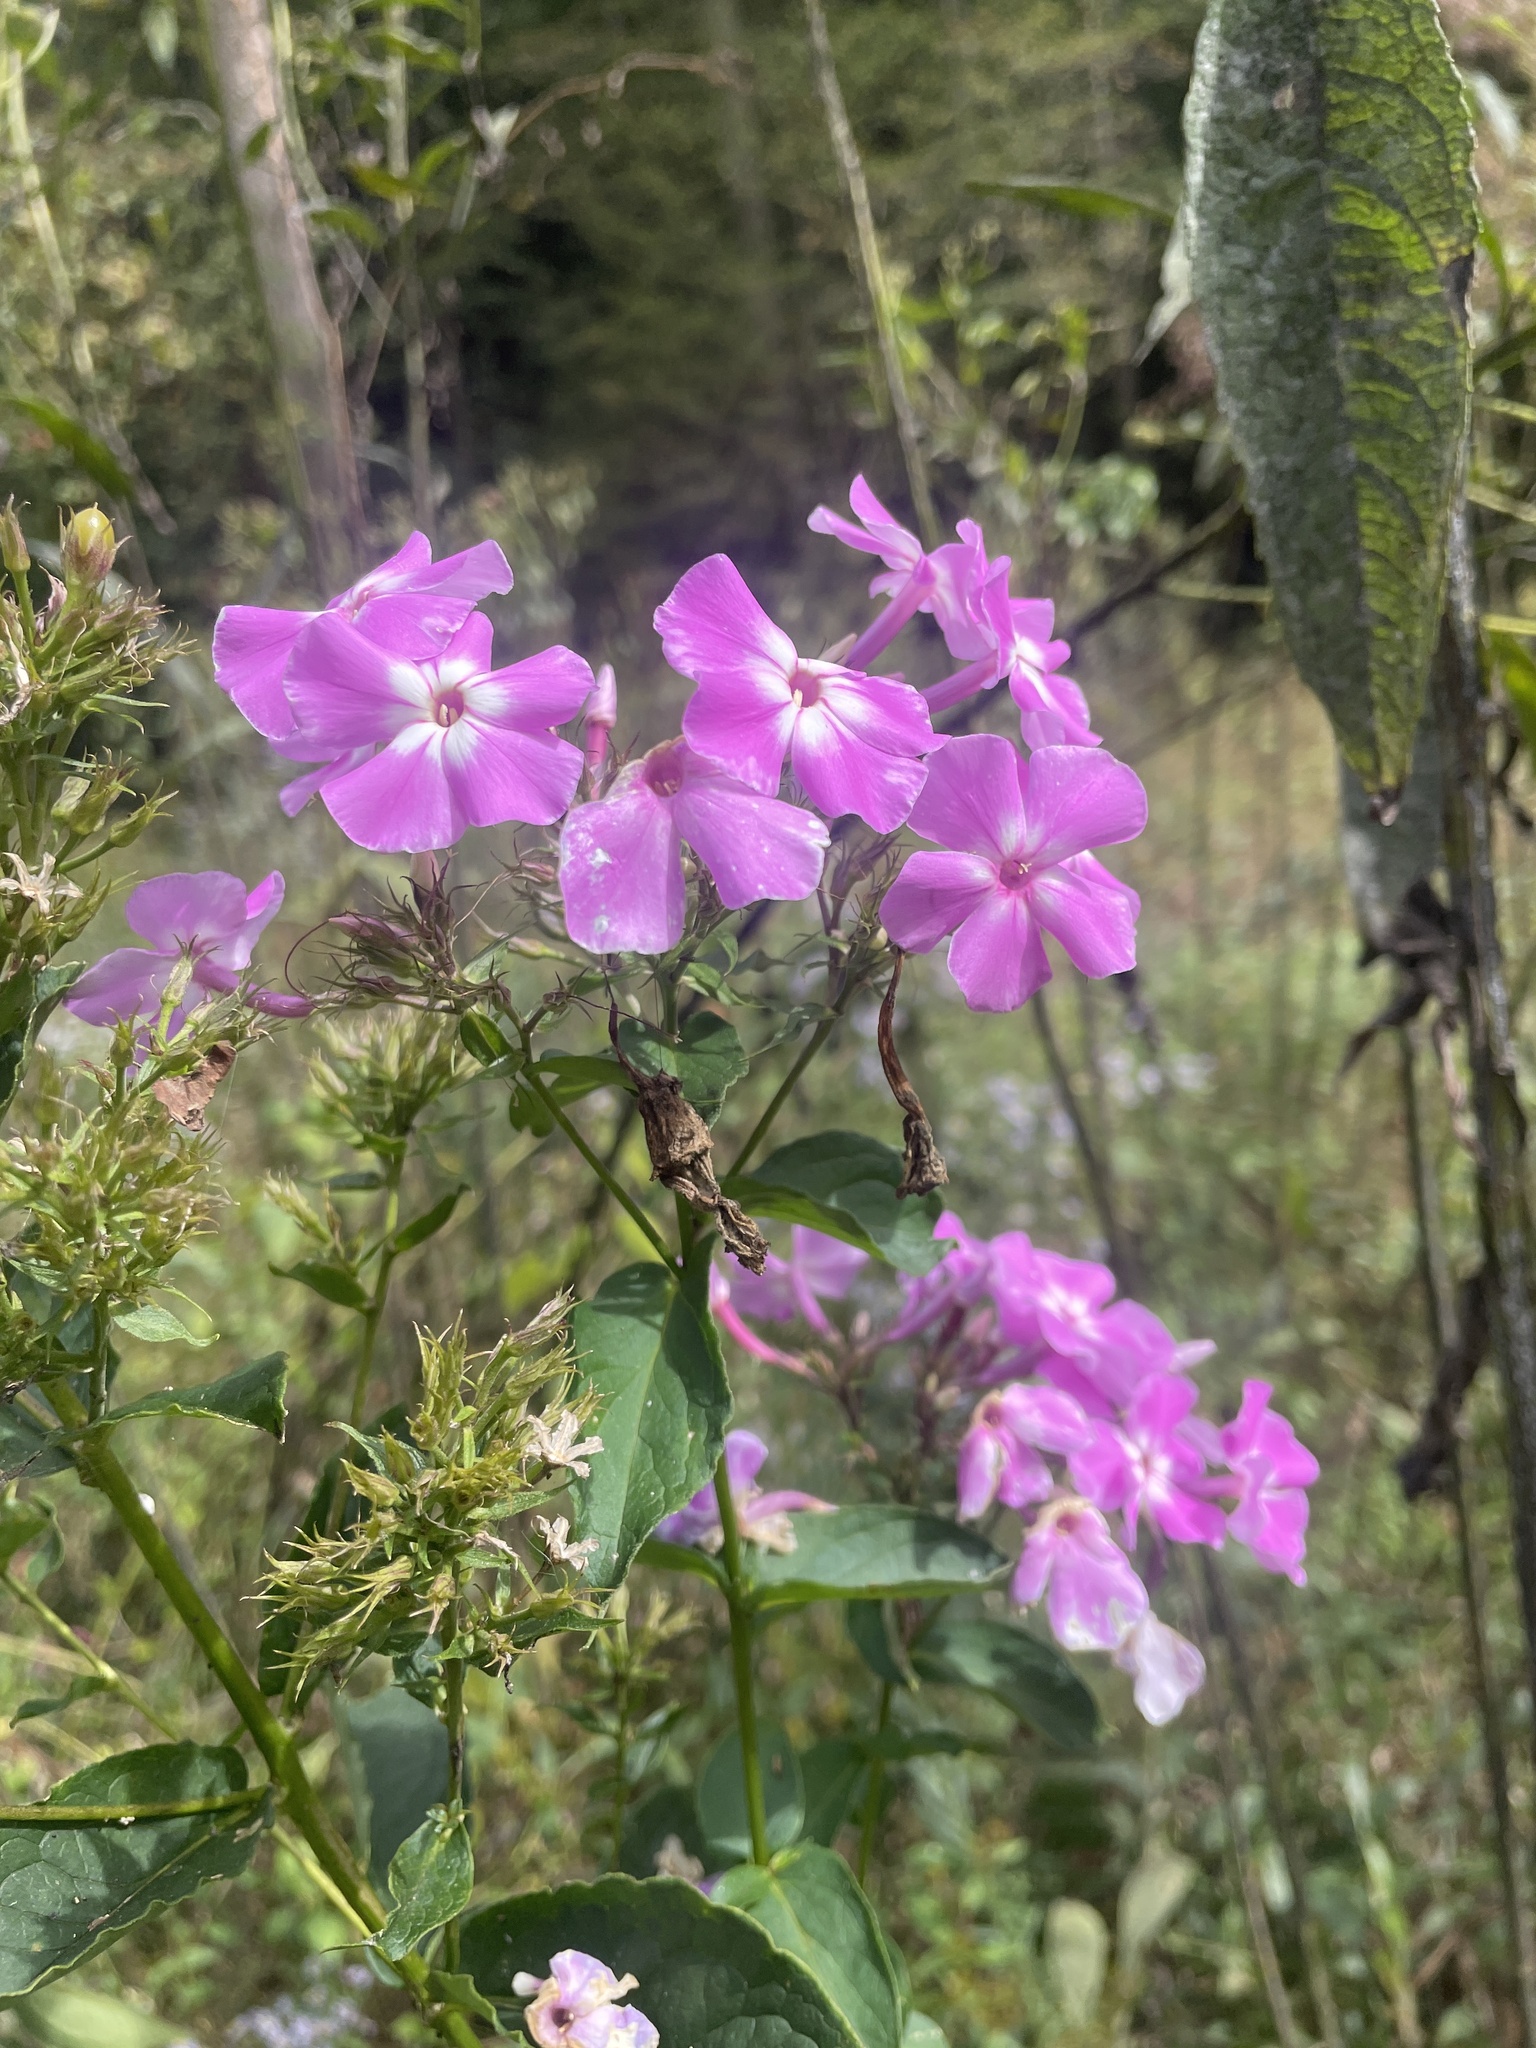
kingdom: Plantae
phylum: Tracheophyta
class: Magnoliopsida
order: Ericales
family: Polemoniaceae
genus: Phlox
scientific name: Phlox paniculata
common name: Fall phlox
